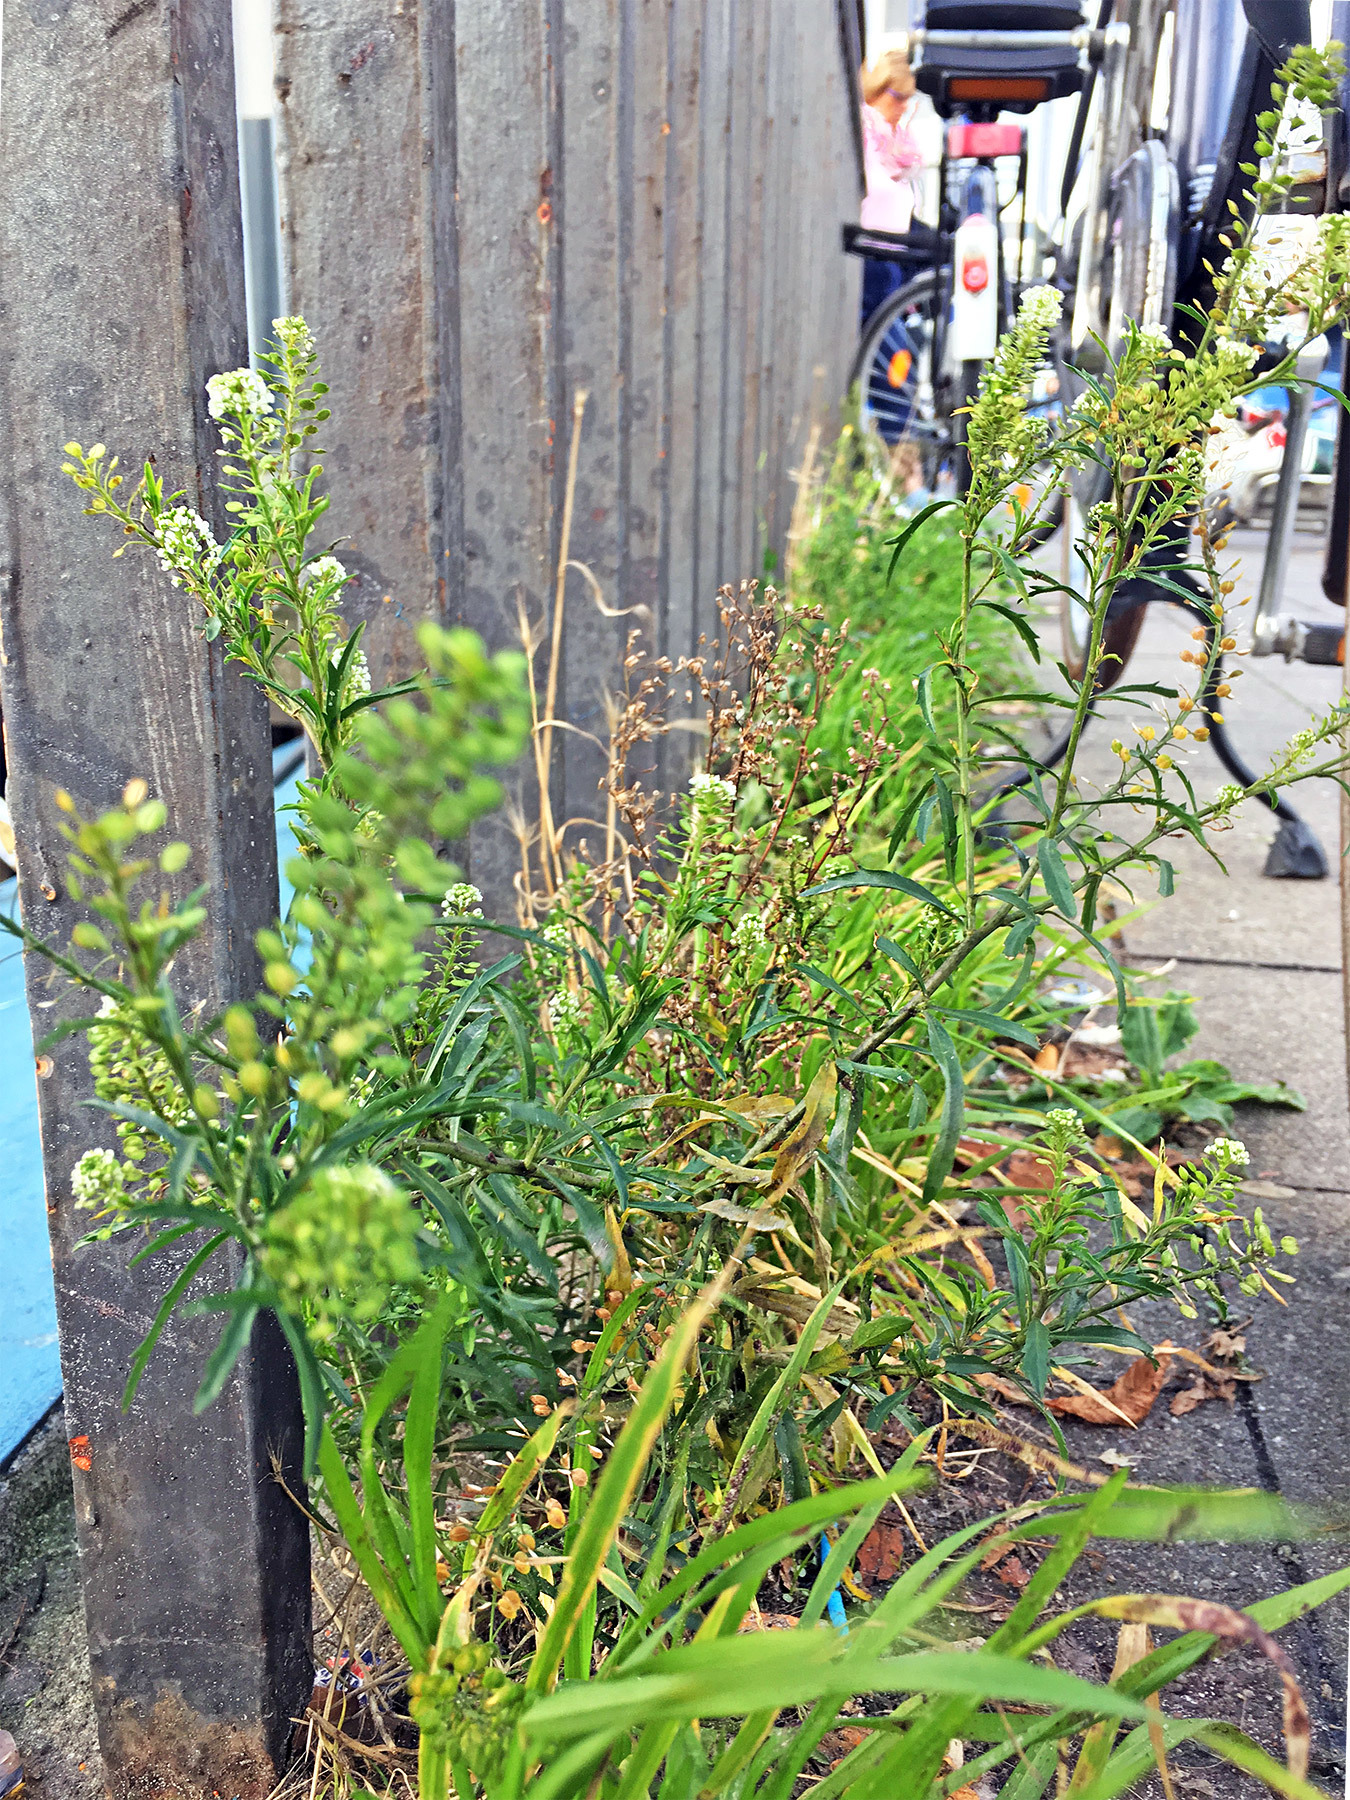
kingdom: Plantae
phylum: Tracheophyta
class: Magnoliopsida
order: Brassicales
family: Brassicaceae
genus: Lepidium
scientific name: Lepidium virginicum
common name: Least pepperwort
